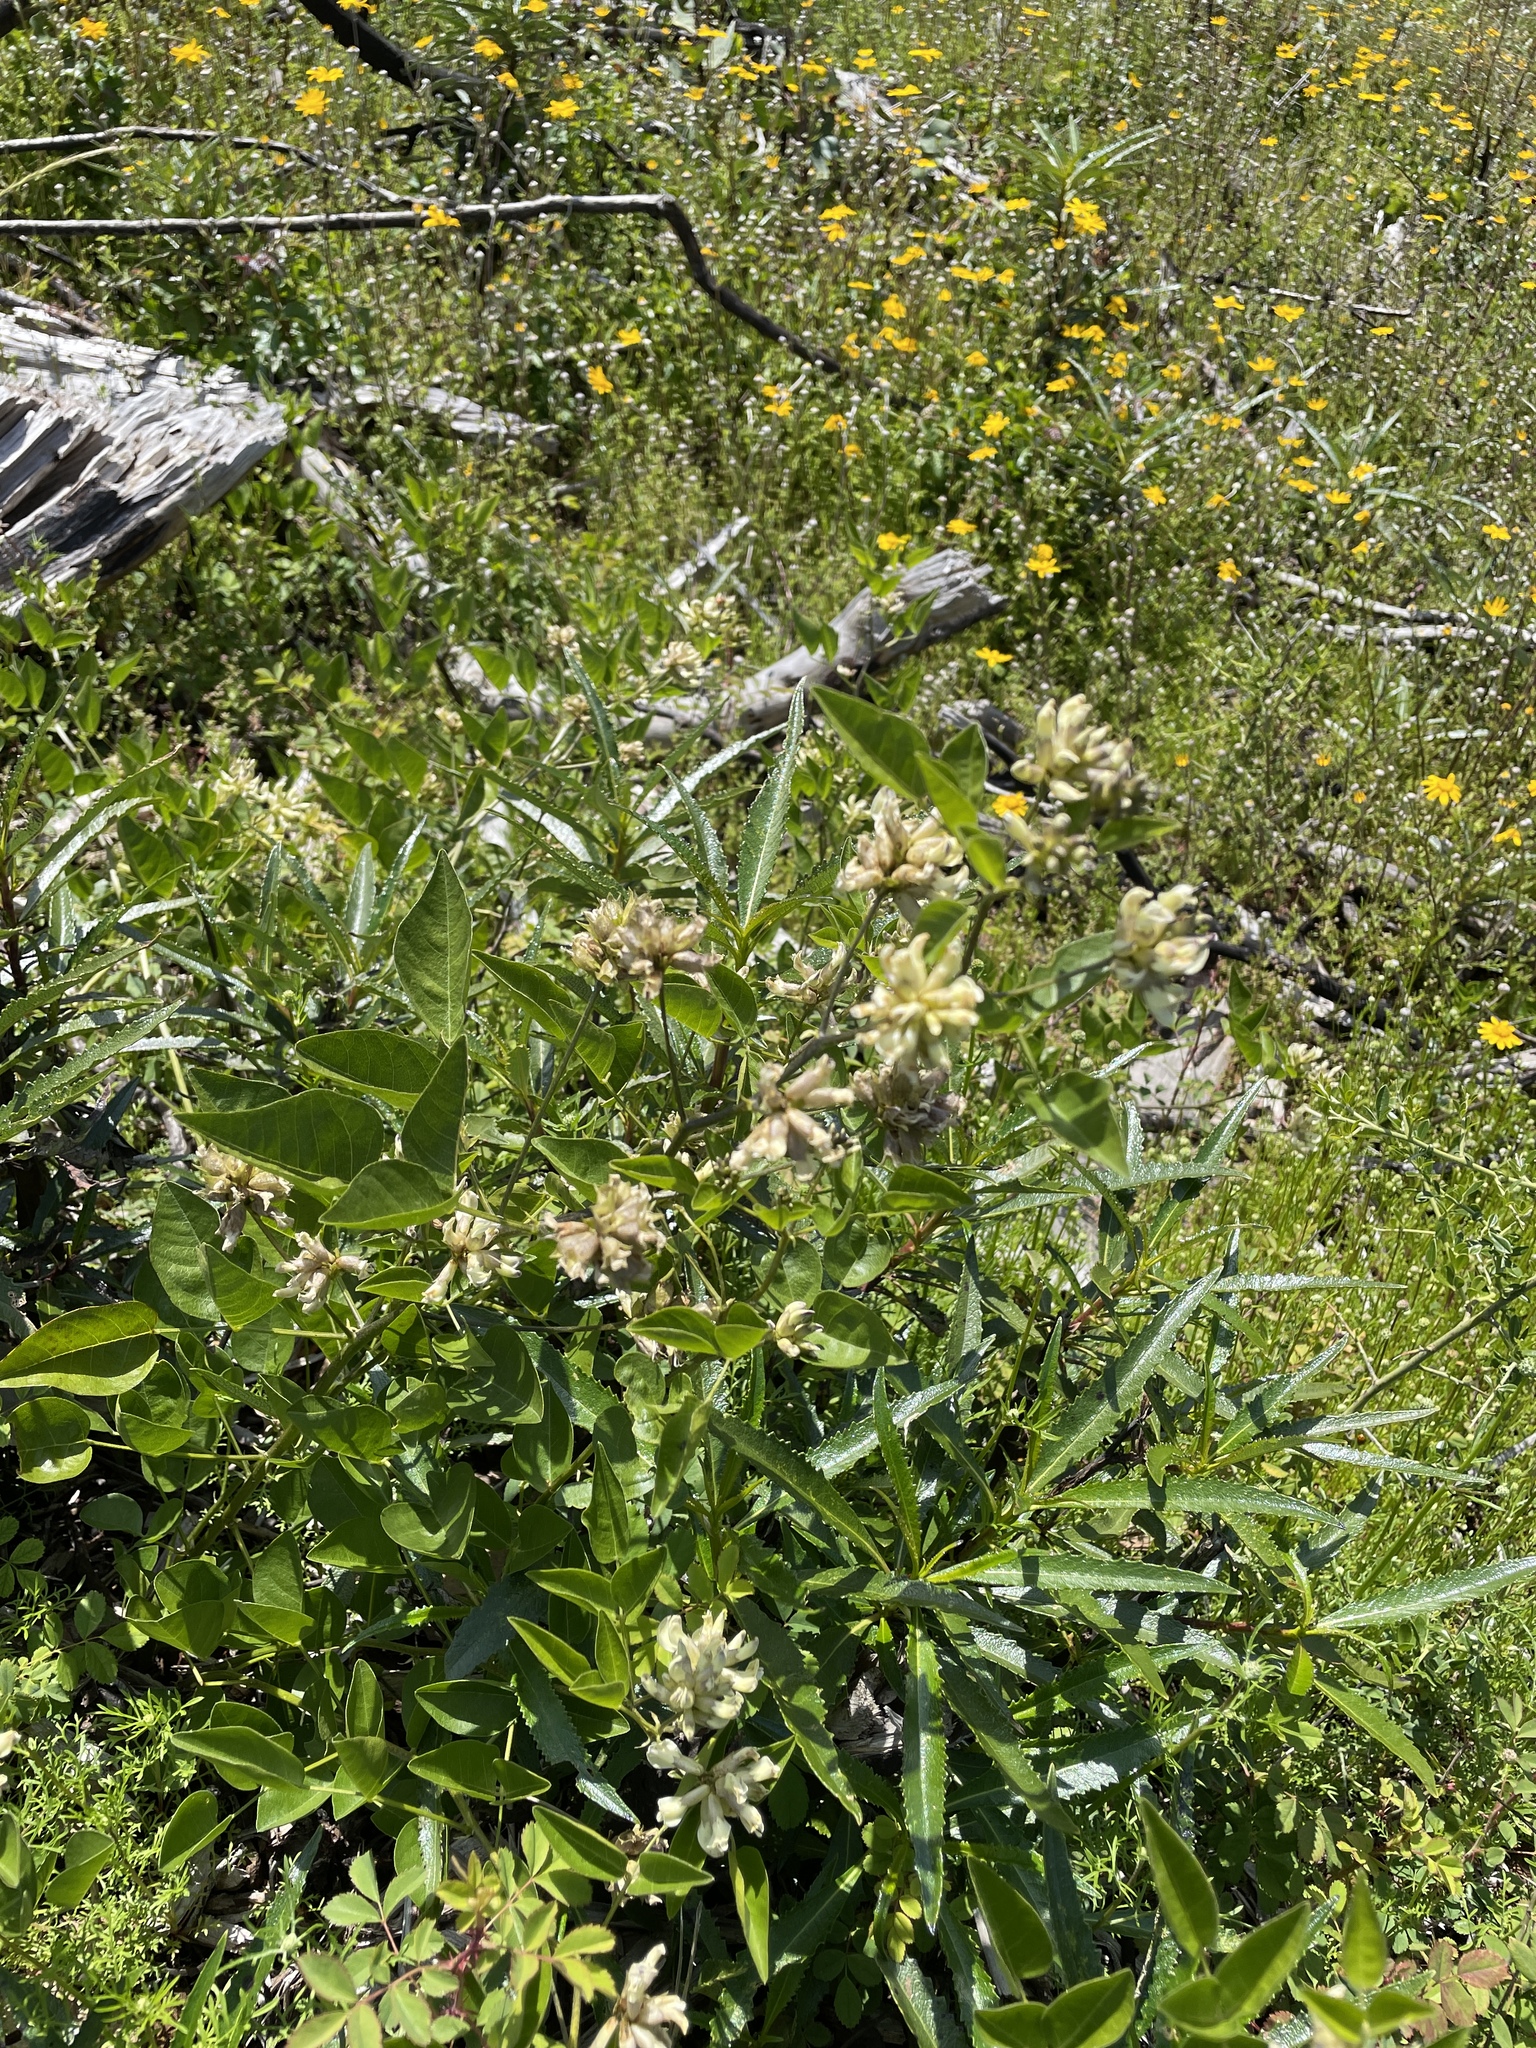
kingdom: Plantae
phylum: Tracheophyta
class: Magnoliopsida
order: Fabales
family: Fabaceae
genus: Rupertia
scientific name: Rupertia physodes
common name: California-tea
